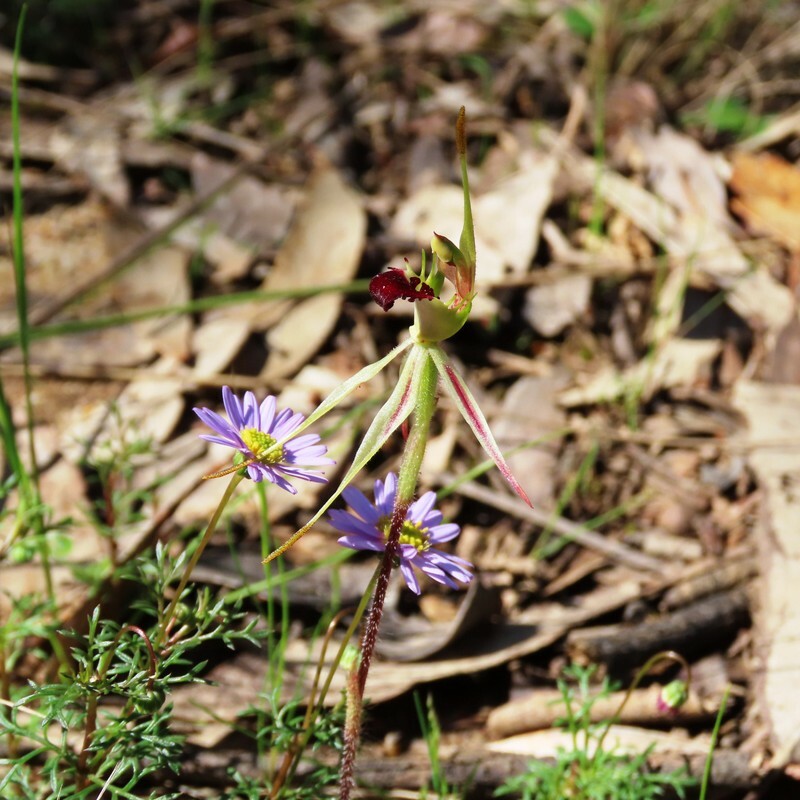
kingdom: Plantae
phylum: Tracheophyta
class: Liliopsida
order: Asparagales
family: Orchidaceae
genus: Caladenia
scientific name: Caladenia parva
